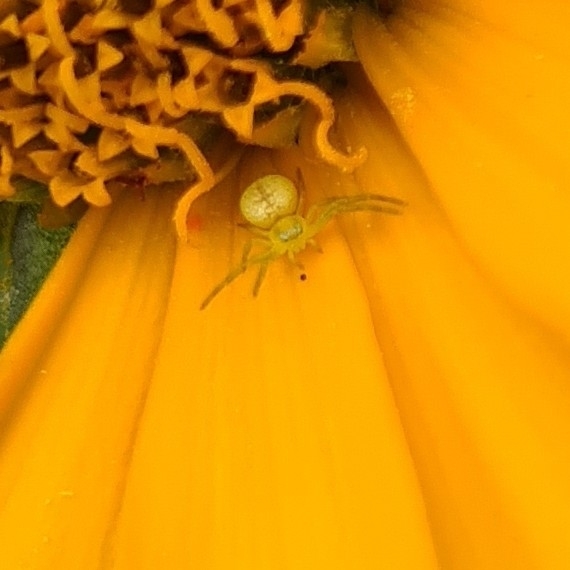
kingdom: Animalia
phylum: Arthropoda
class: Arachnida
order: Araneae
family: Thomisidae
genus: Ebrechtella
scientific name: Ebrechtella tricuspidata
